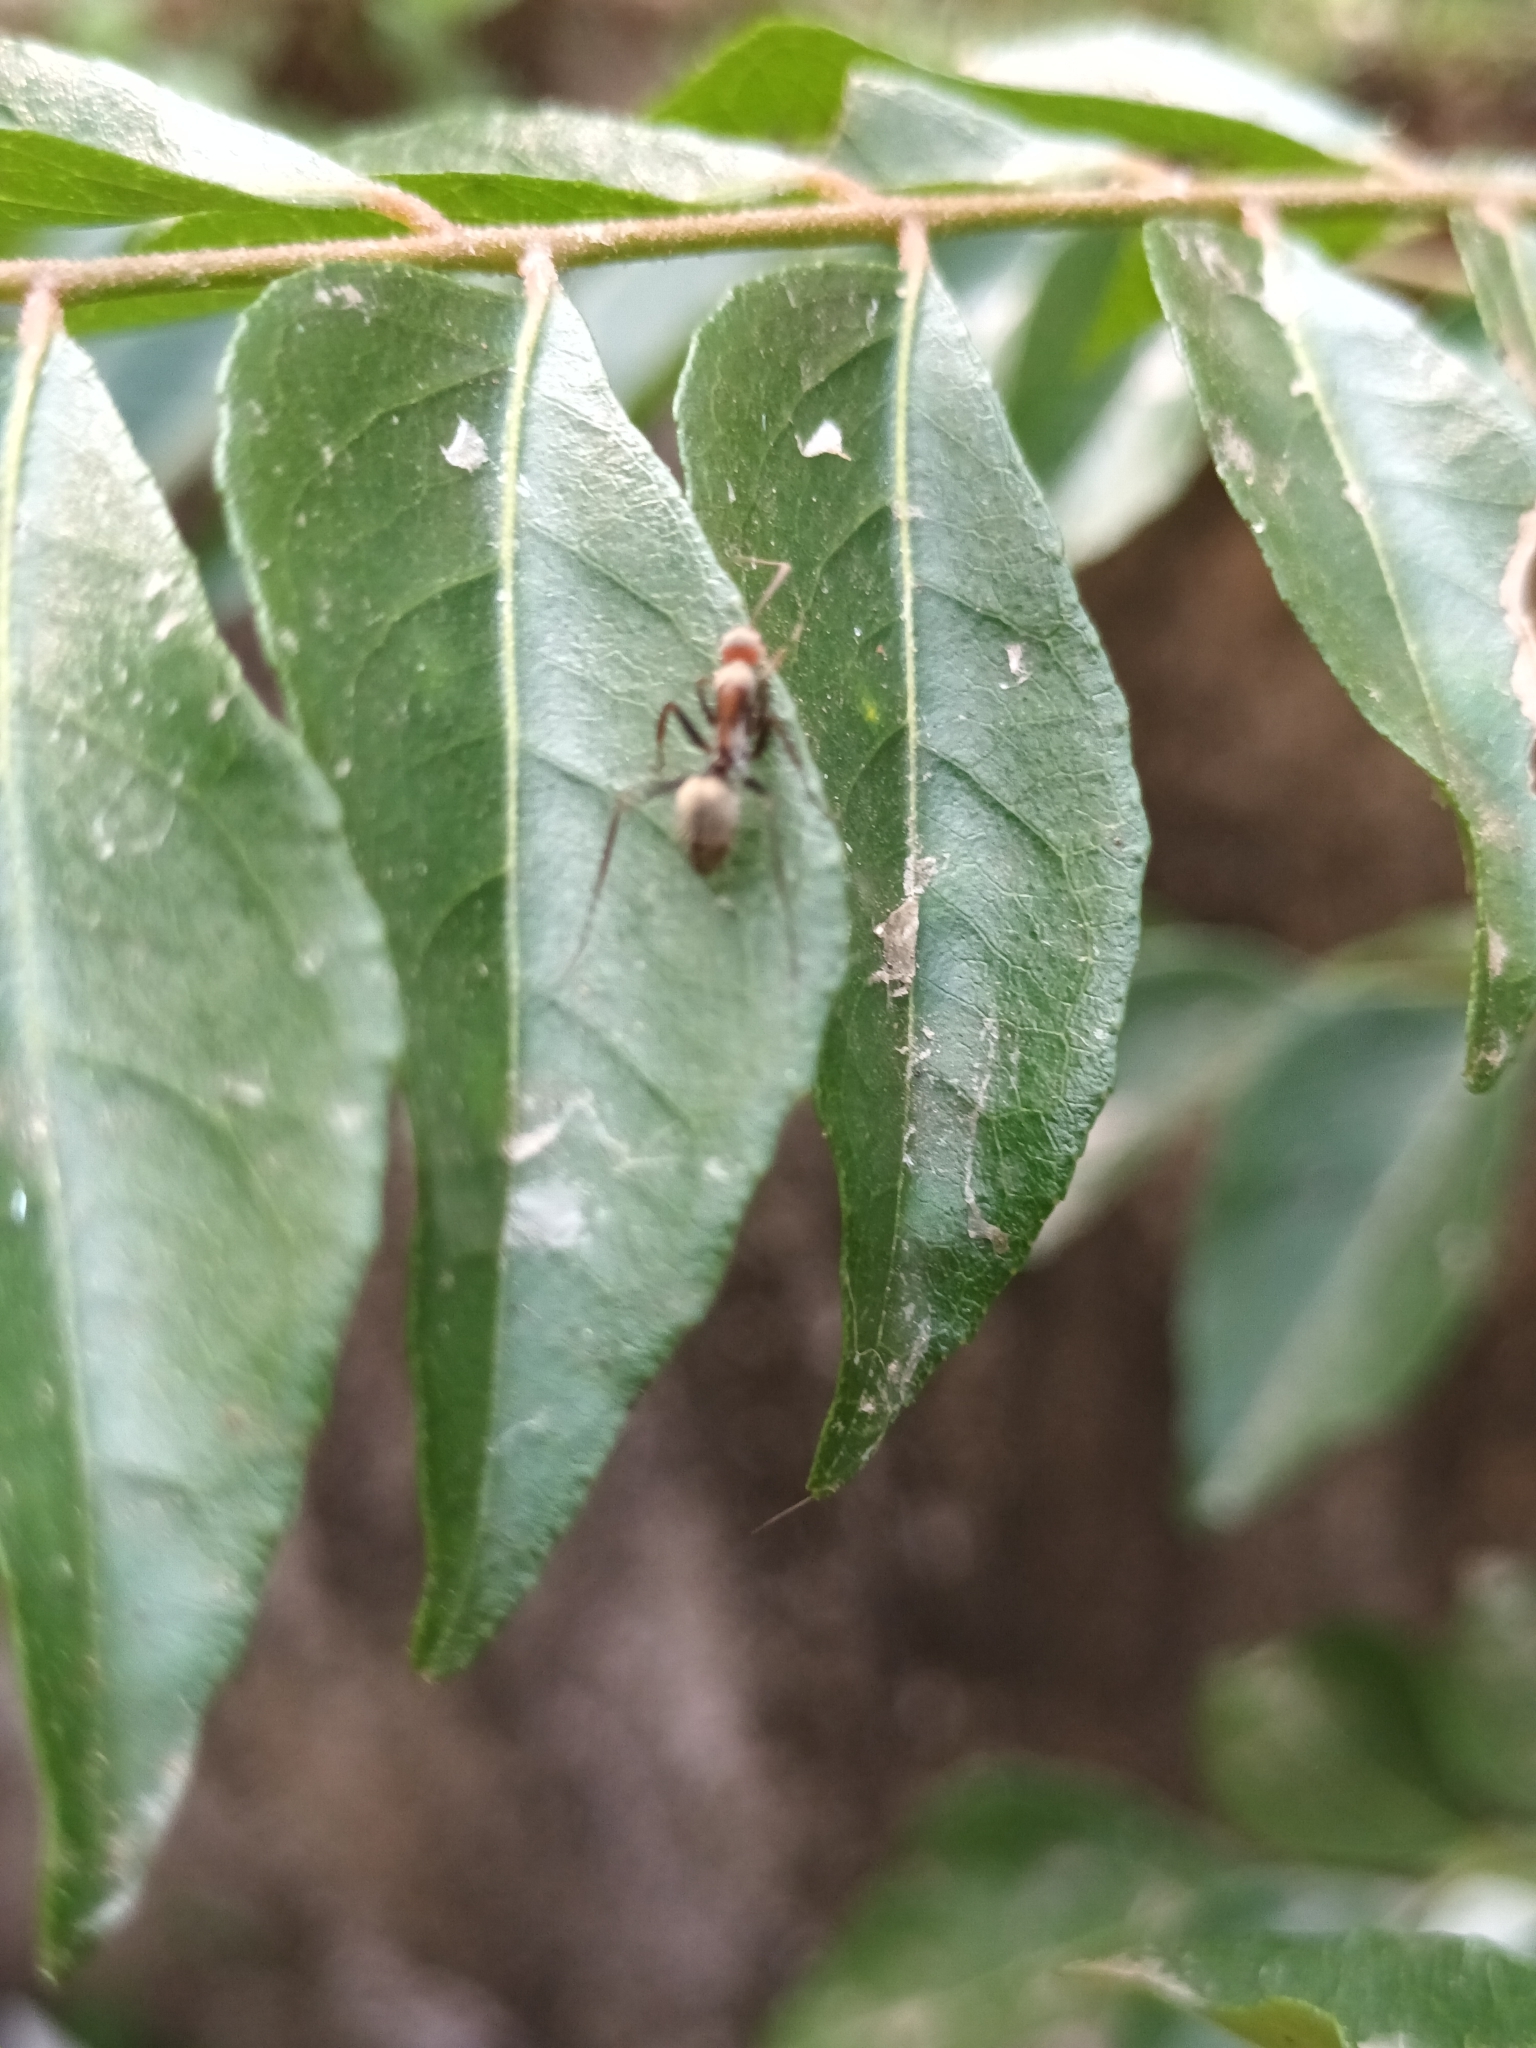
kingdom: Animalia
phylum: Arthropoda
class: Insecta
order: Hymenoptera
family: Formicidae
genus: Camponotus
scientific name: Camponotus rufoglaucus
